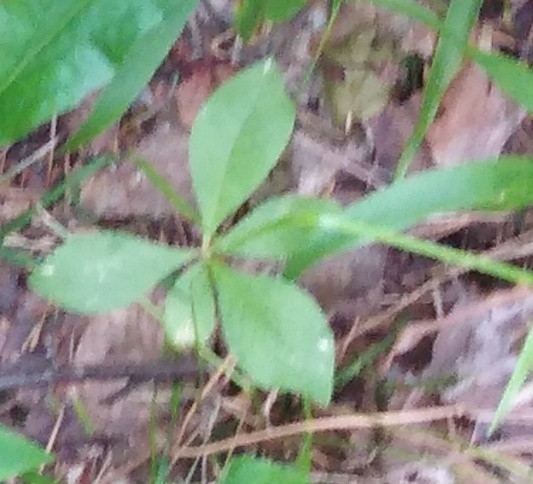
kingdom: Plantae
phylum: Tracheophyta
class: Magnoliopsida
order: Ericales
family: Primulaceae
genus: Lysimachia
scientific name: Lysimachia europaea
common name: Arctic starflower
